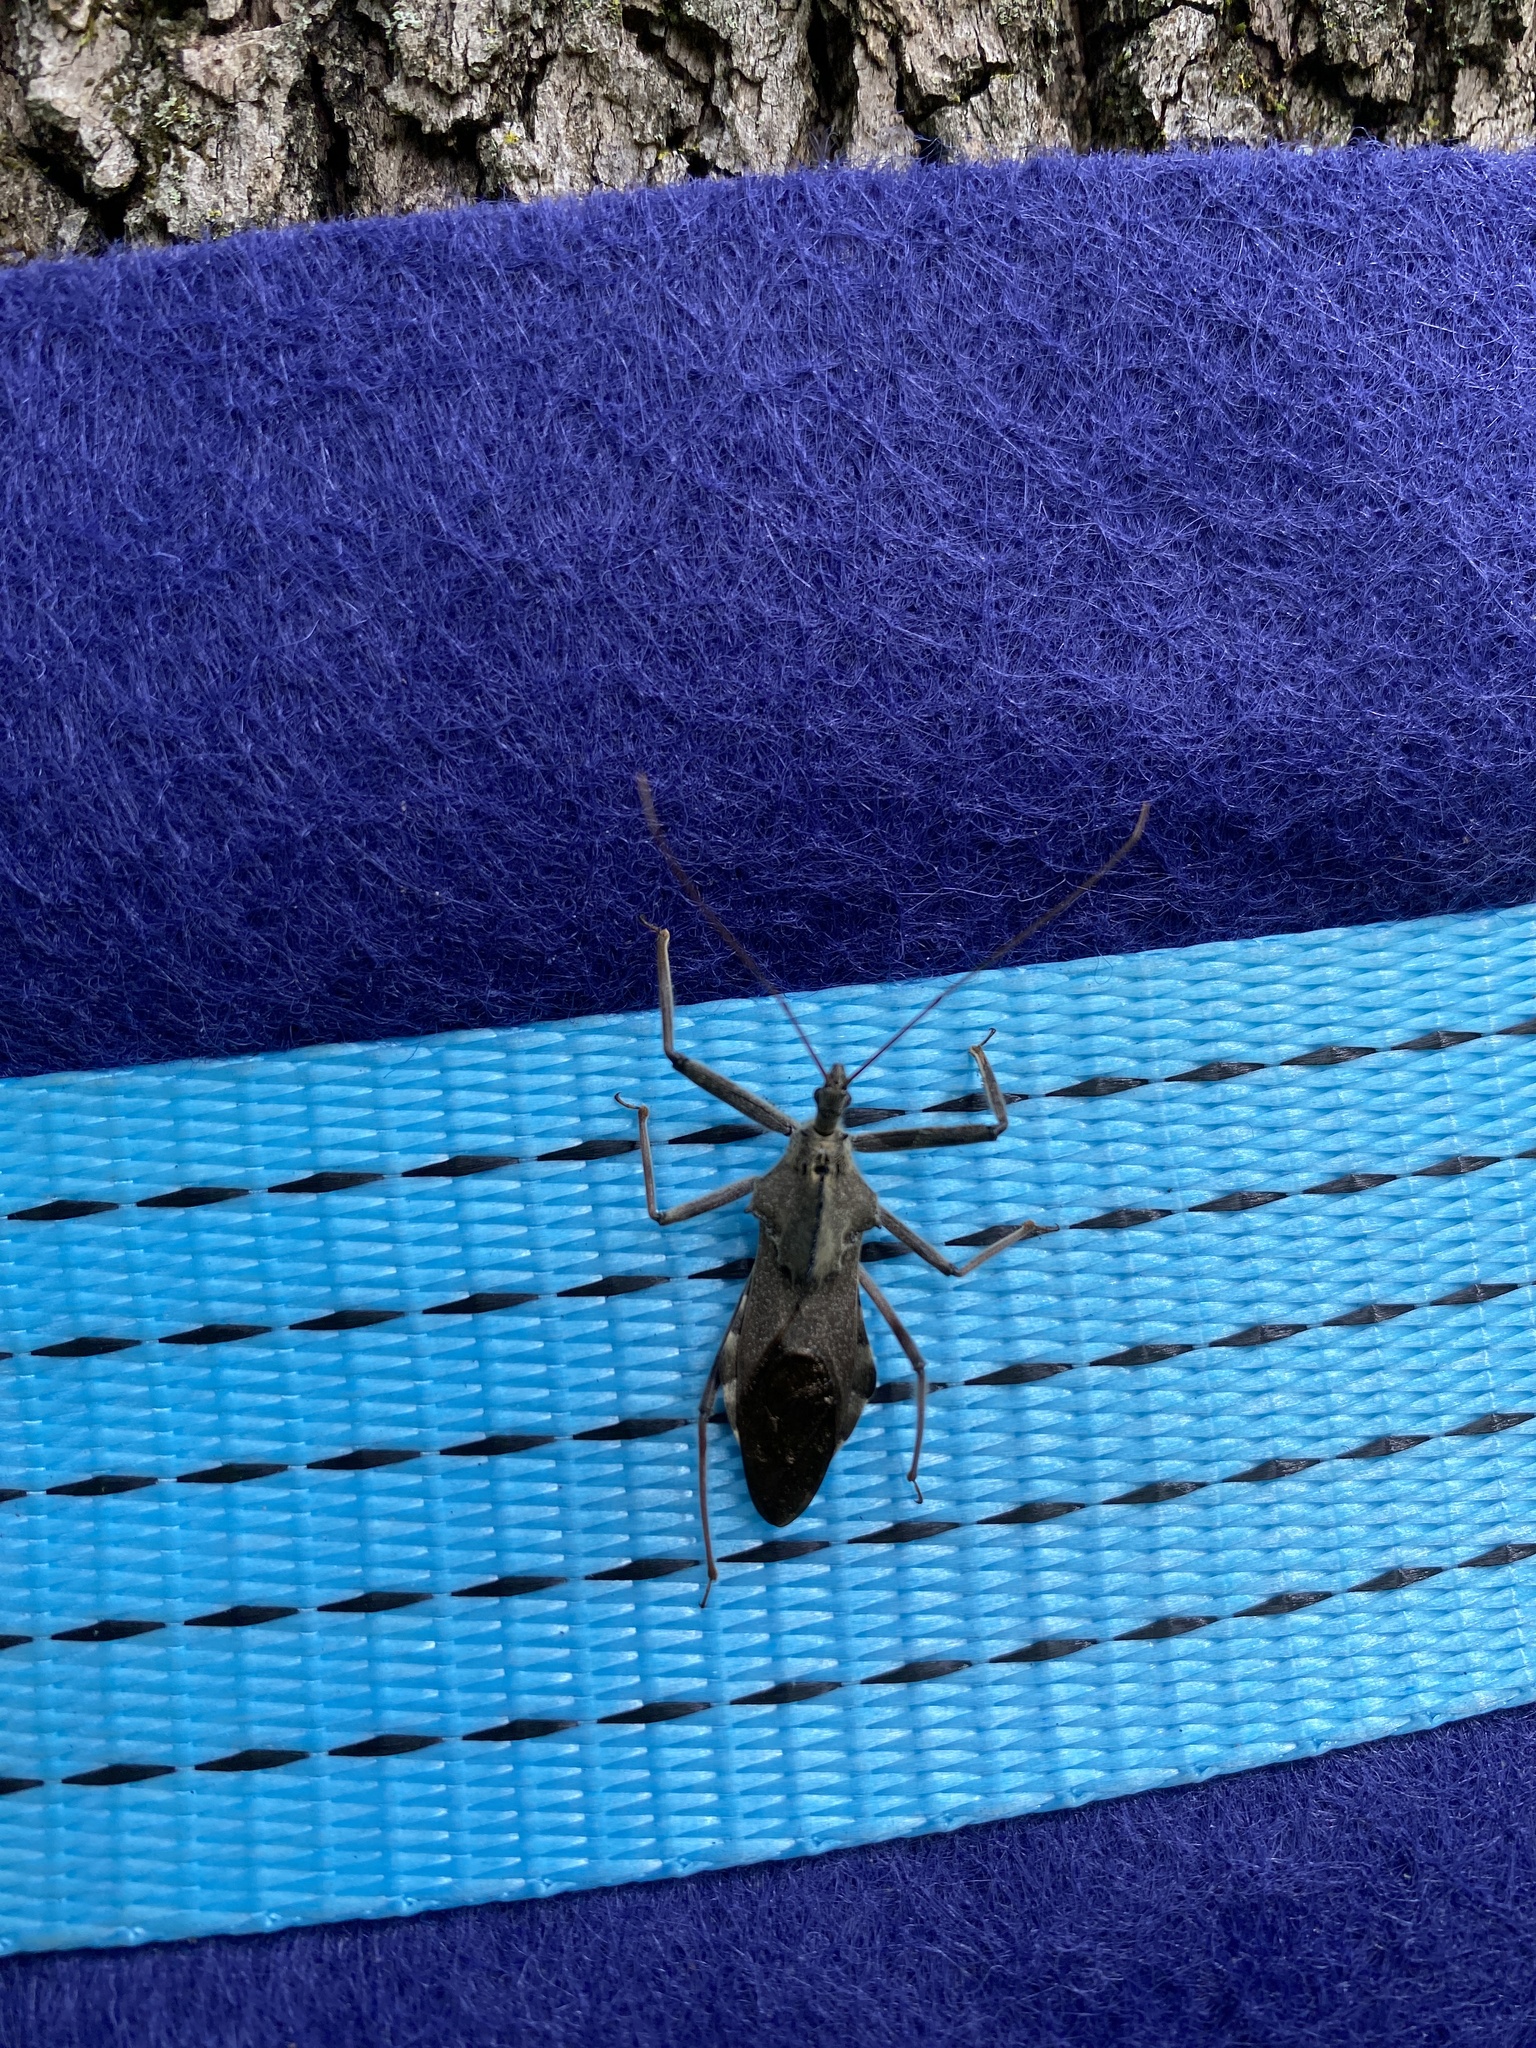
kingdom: Animalia
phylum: Arthropoda
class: Insecta
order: Hemiptera
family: Reduviidae
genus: Arilus
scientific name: Arilus cristatus
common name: North american wheel bug
